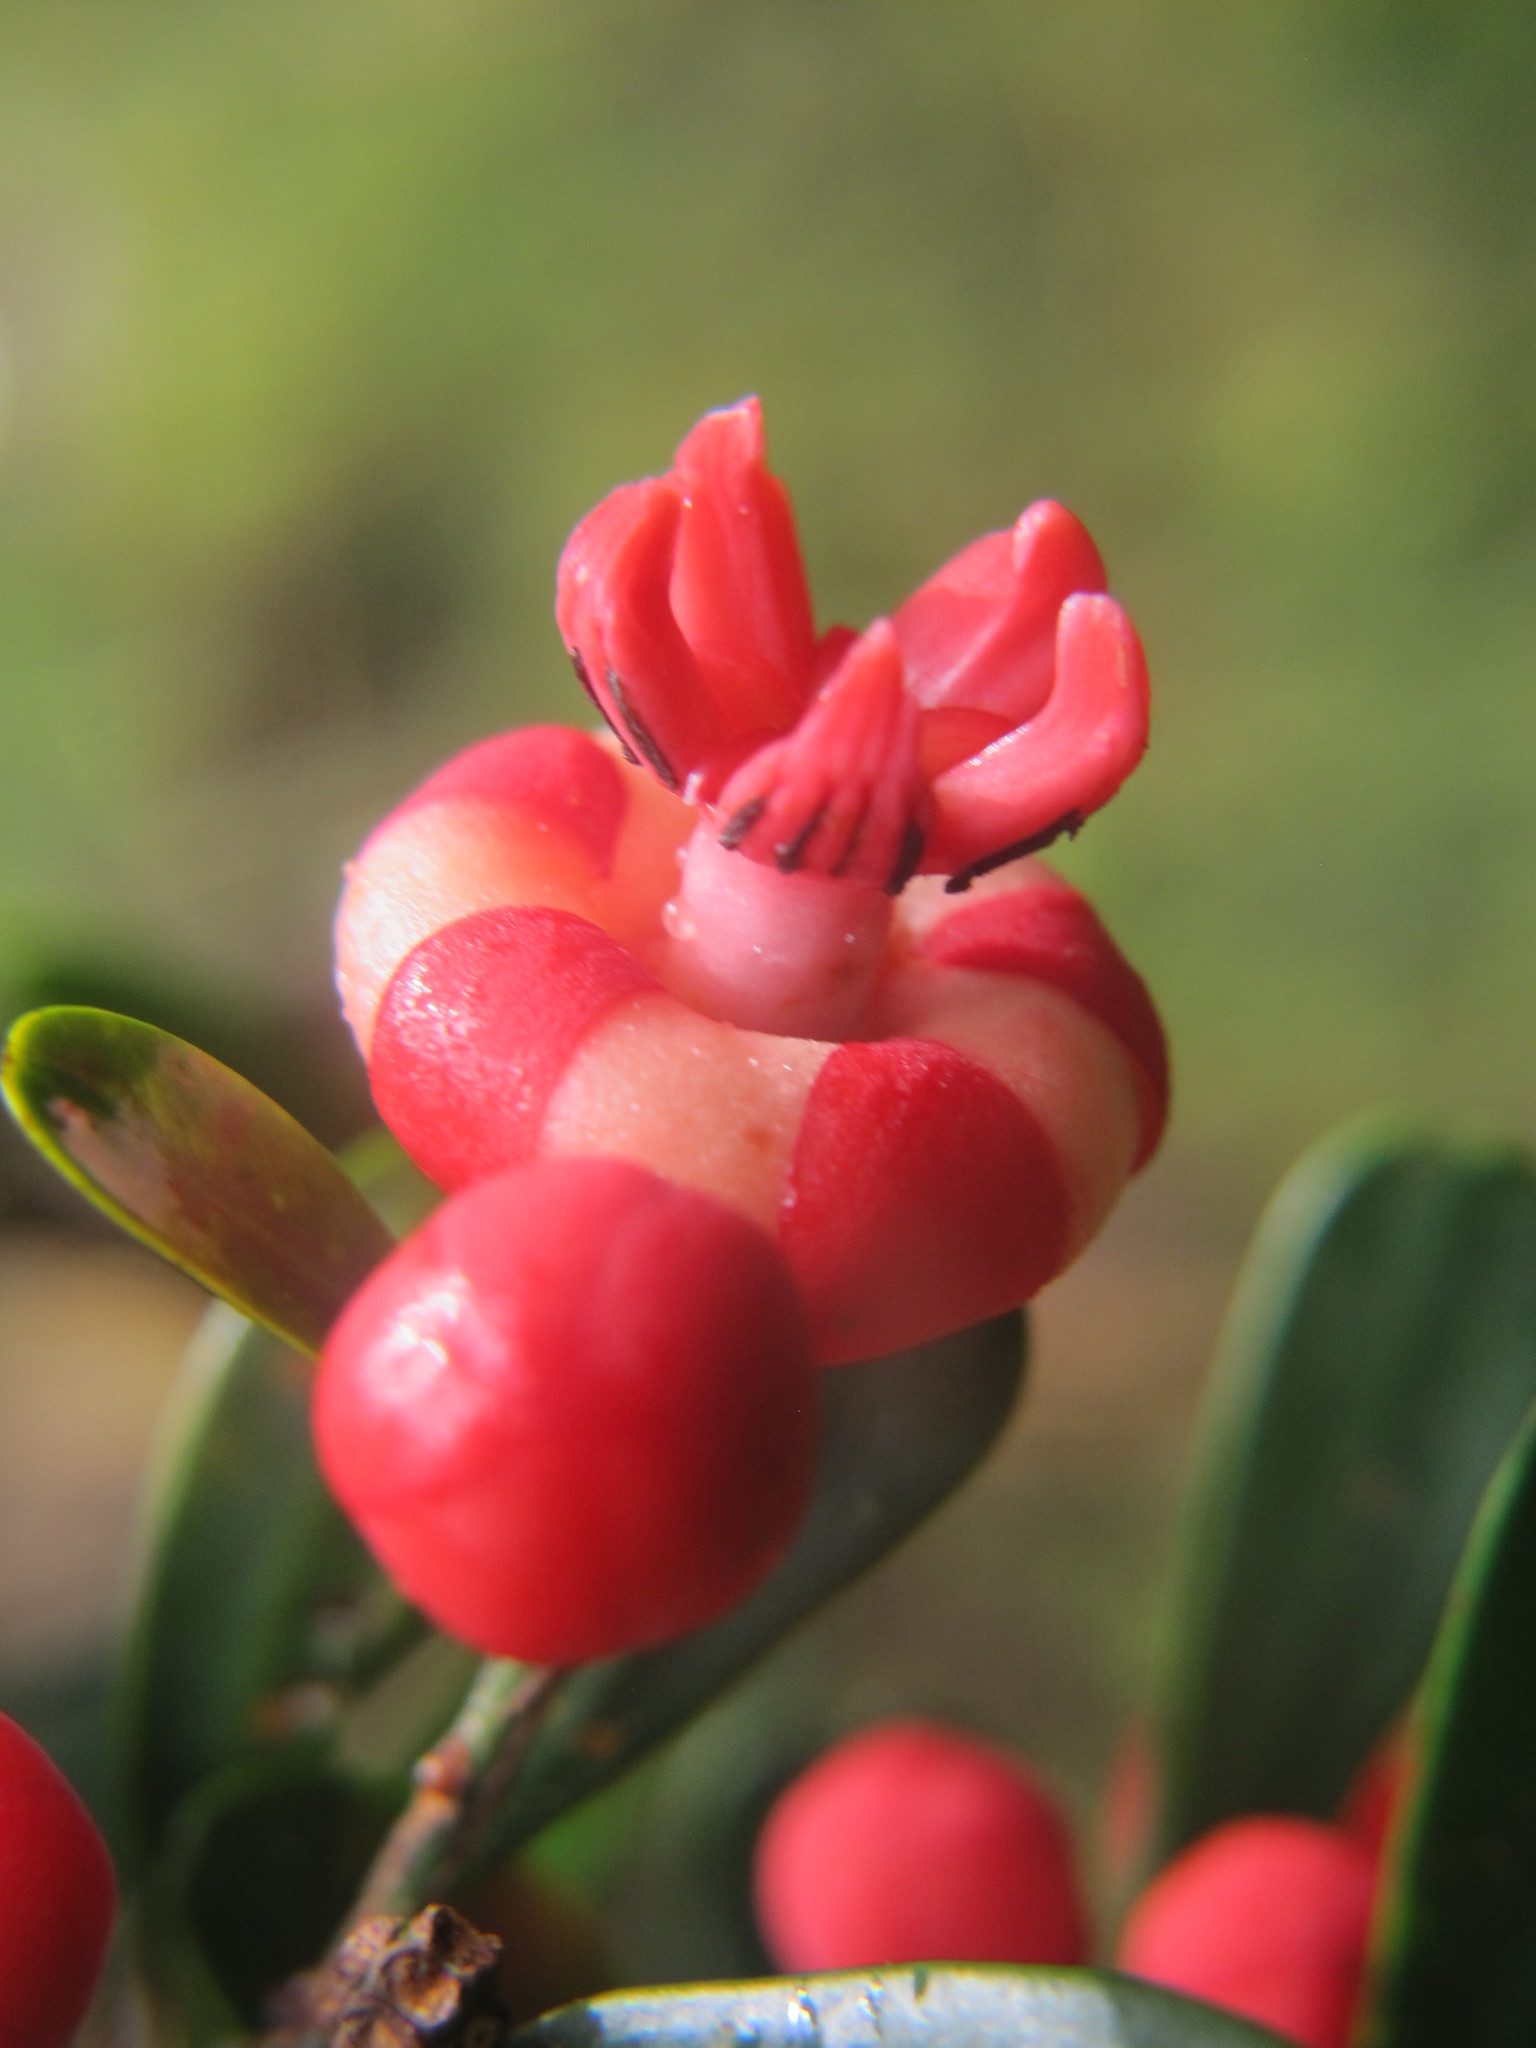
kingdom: Plantae
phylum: Tracheophyta
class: Magnoliopsida
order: Malpighiales
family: Clusiaceae
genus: Symphonia
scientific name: Symphonia microphylla
